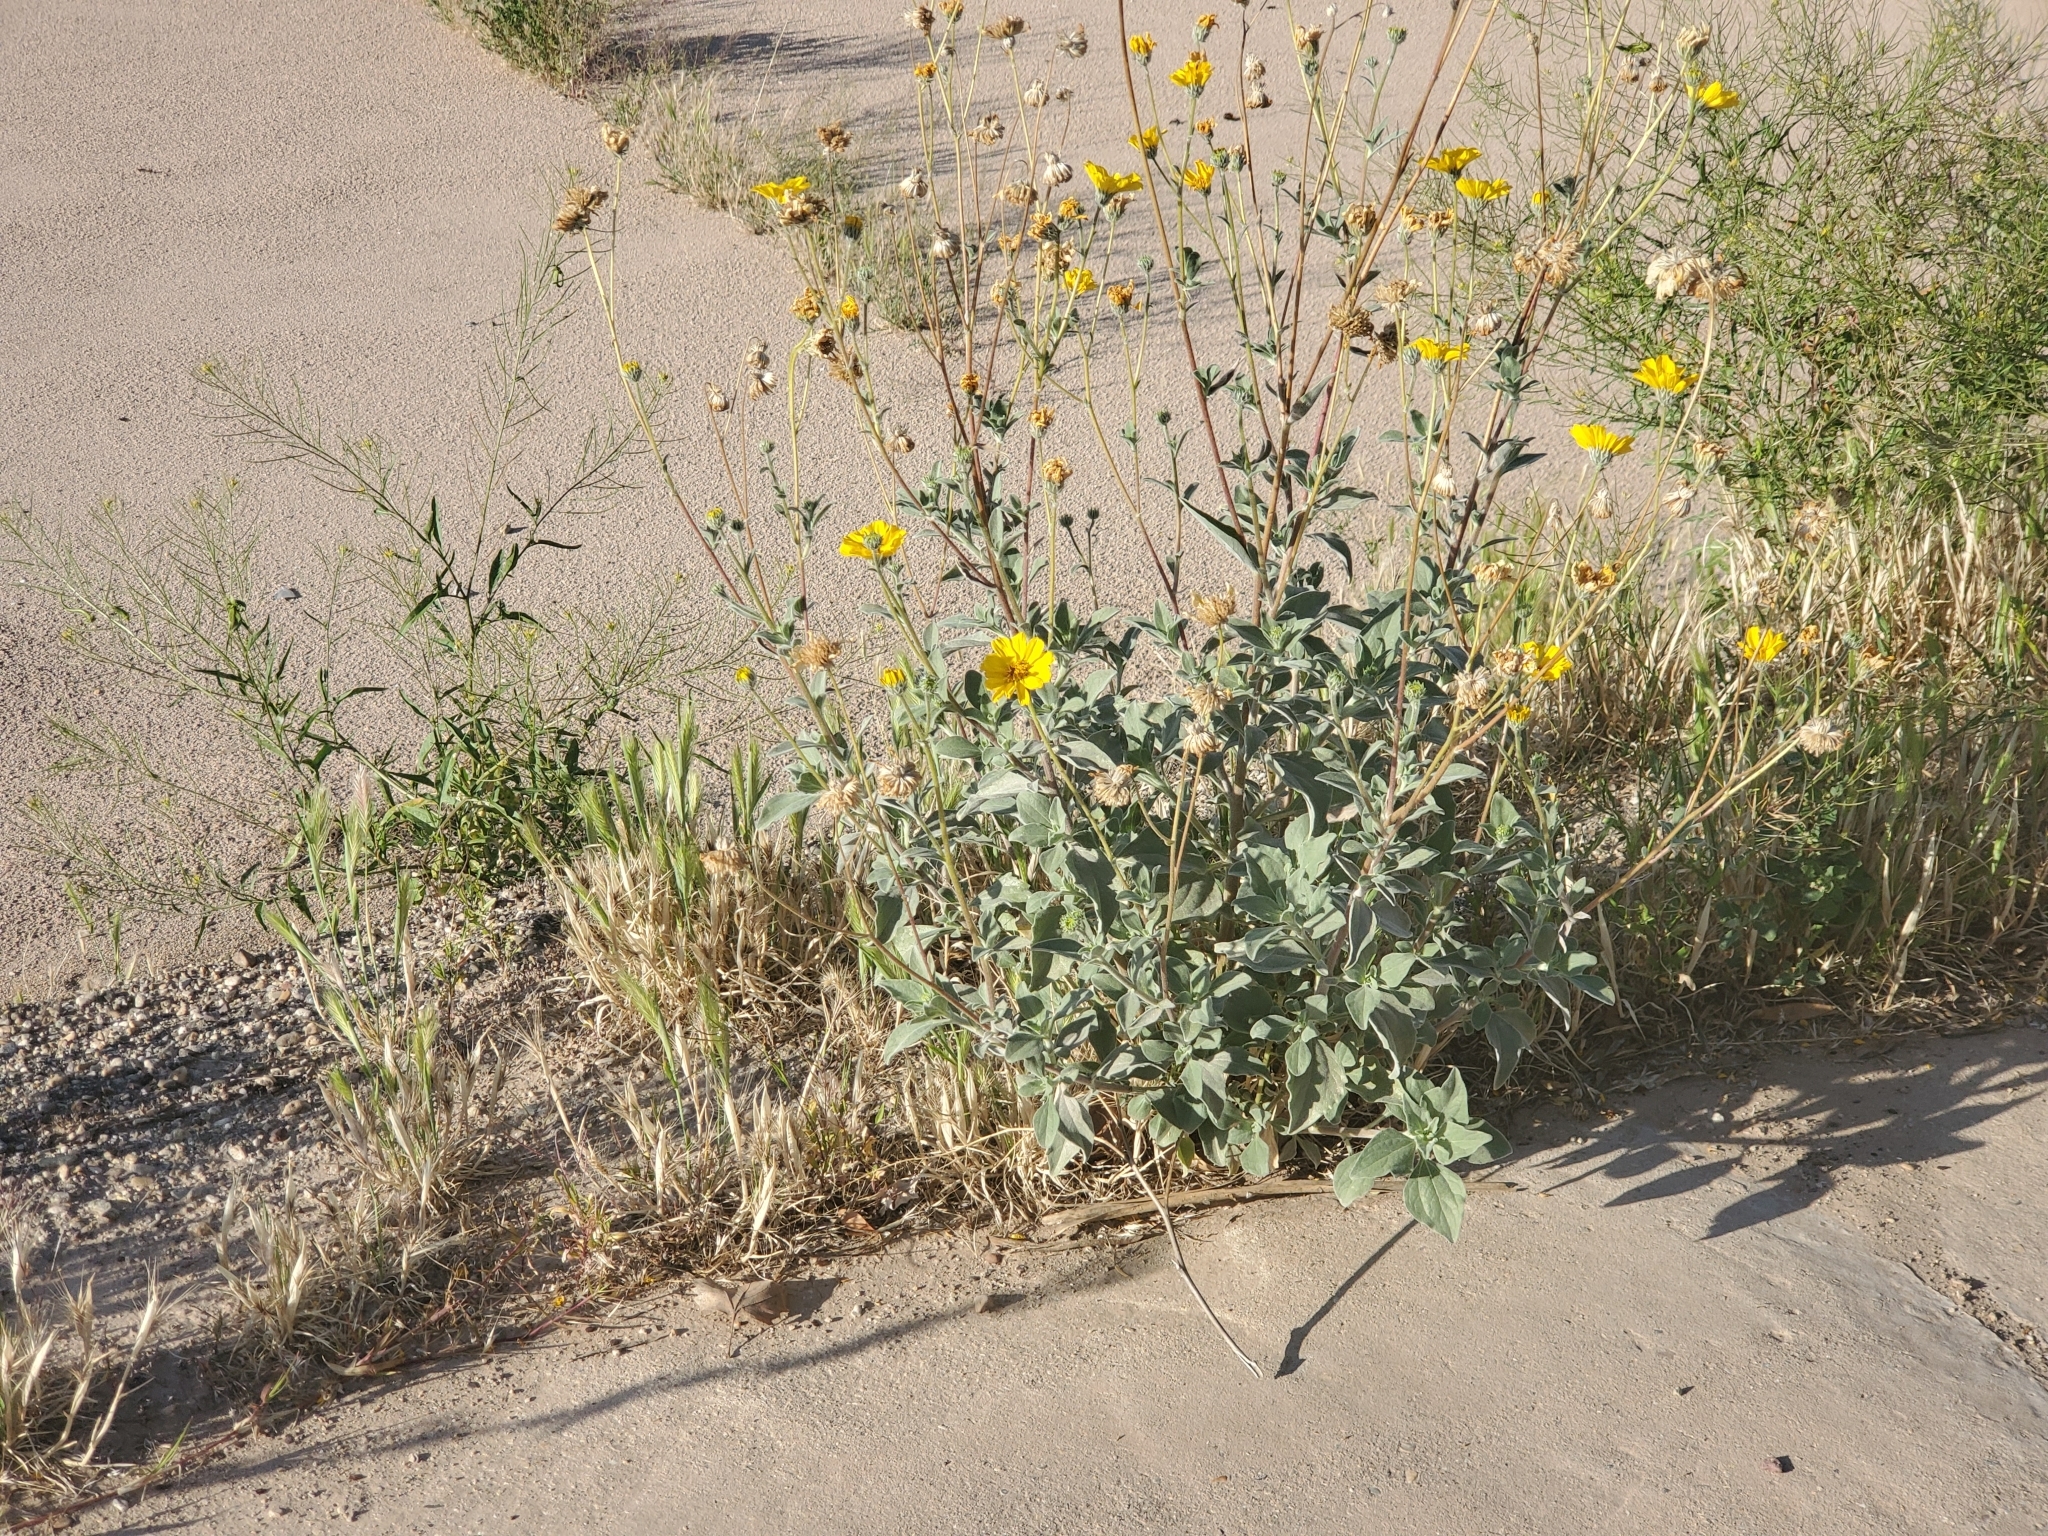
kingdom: Plantae
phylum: Tracheophyta
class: Magnoliopsida
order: Asterales
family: Asteraceae
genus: Geraea
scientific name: Geraea canescens
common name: Desert-gold
